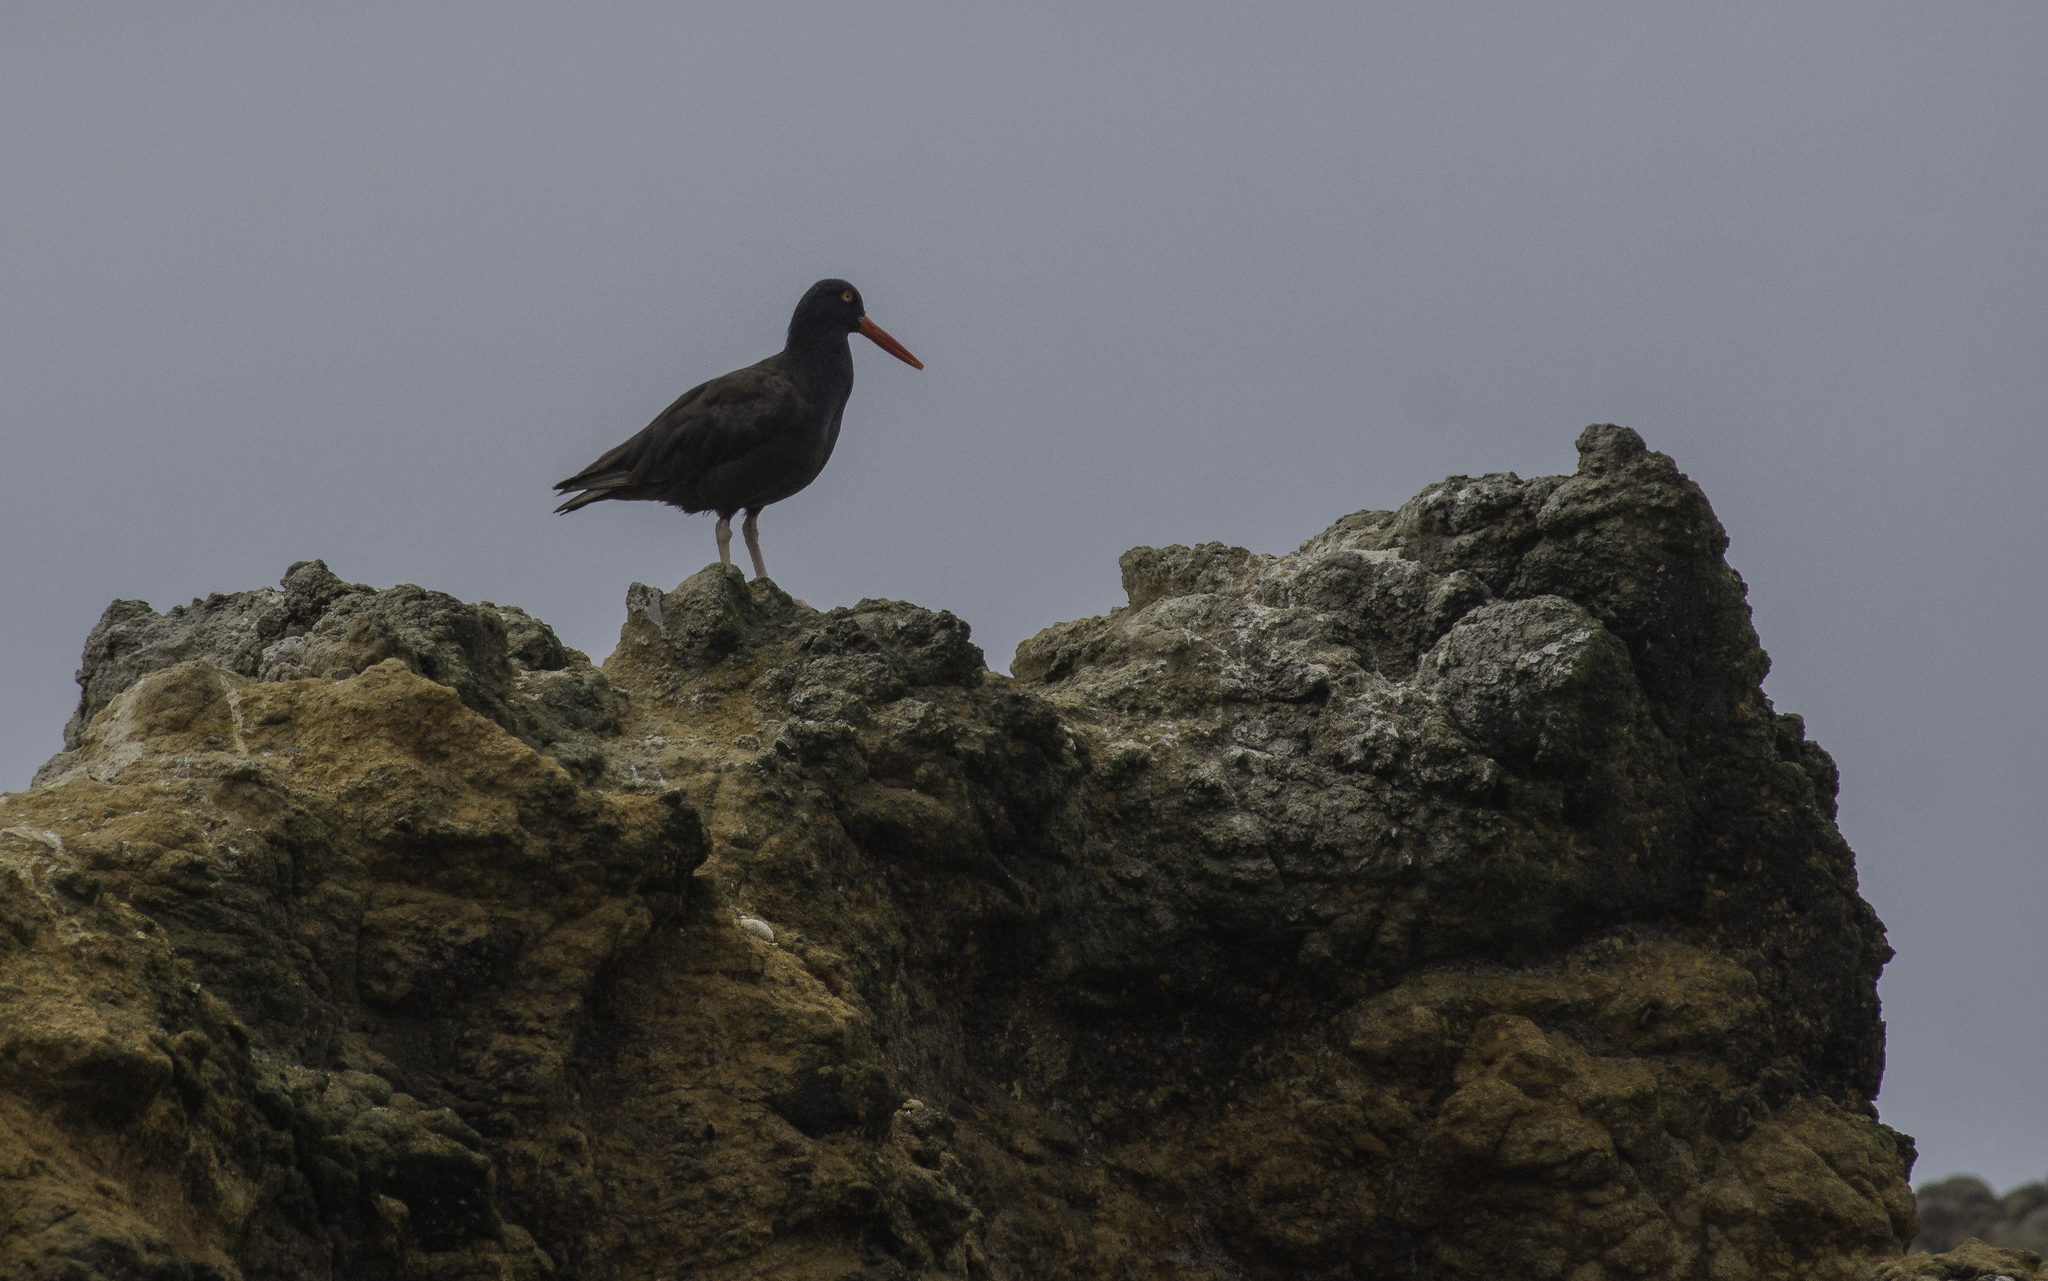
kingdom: Animalia
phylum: Chordata
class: Aves
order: Charadriiformes
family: Haematopodidae
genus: Haematopus
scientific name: Haematopus bachmani
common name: Black oystercatcher
